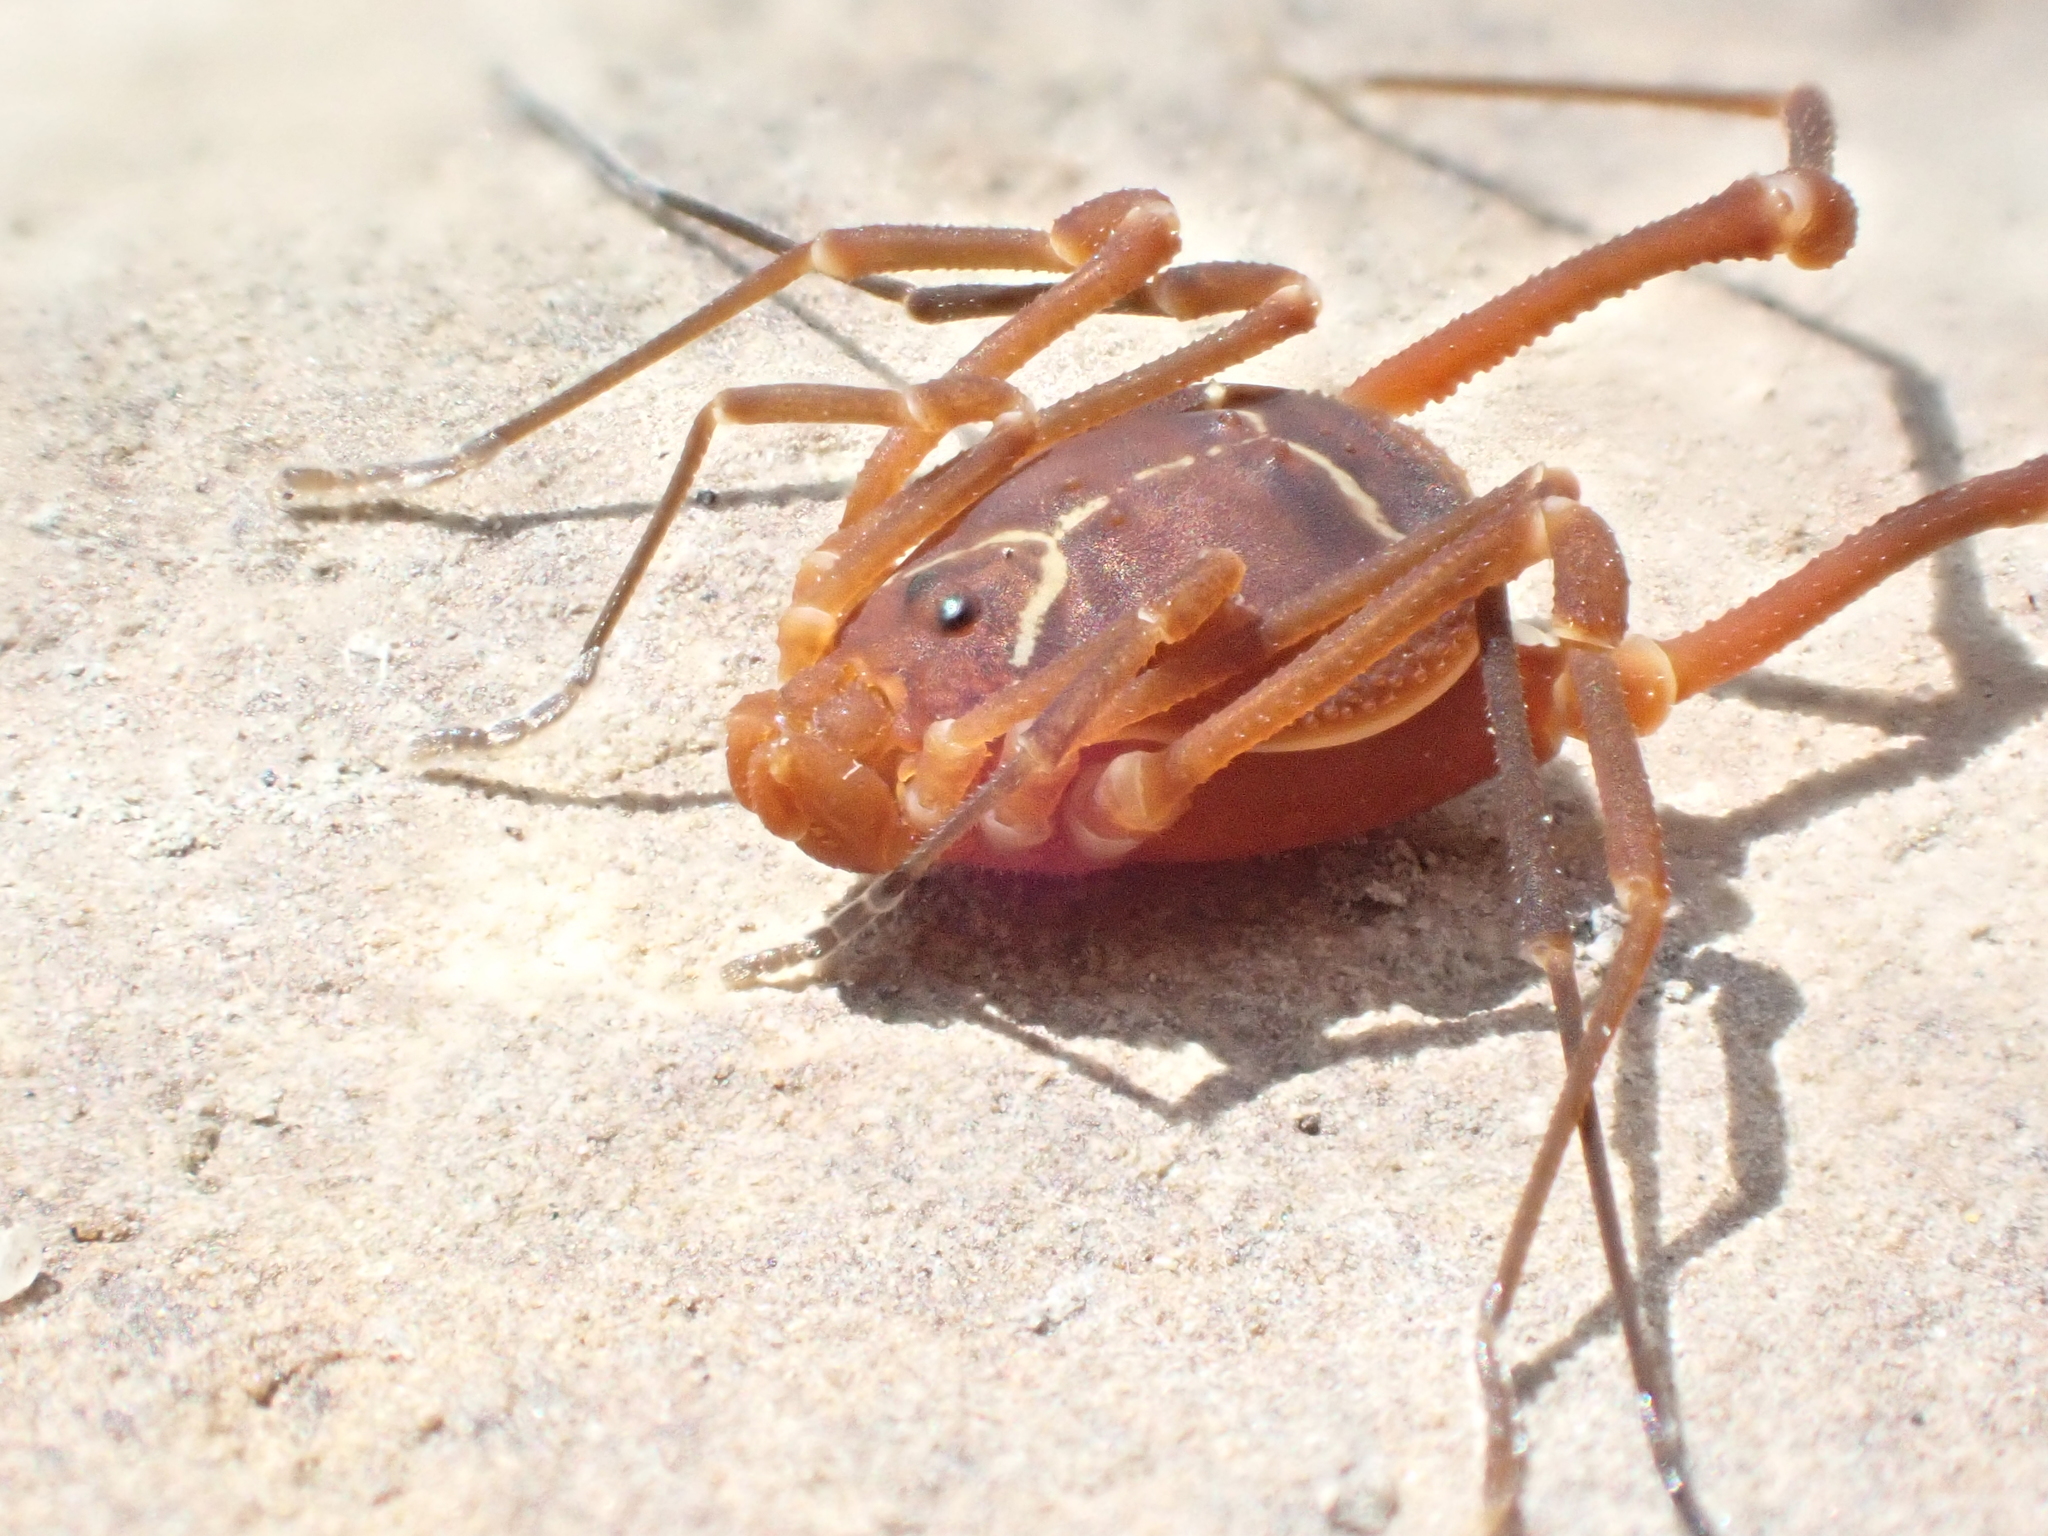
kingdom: Animalia
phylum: Arthropoda
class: Arachnida
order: Opiliones
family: Cosmetidae
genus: Libitioides
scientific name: Libitioides sayi
